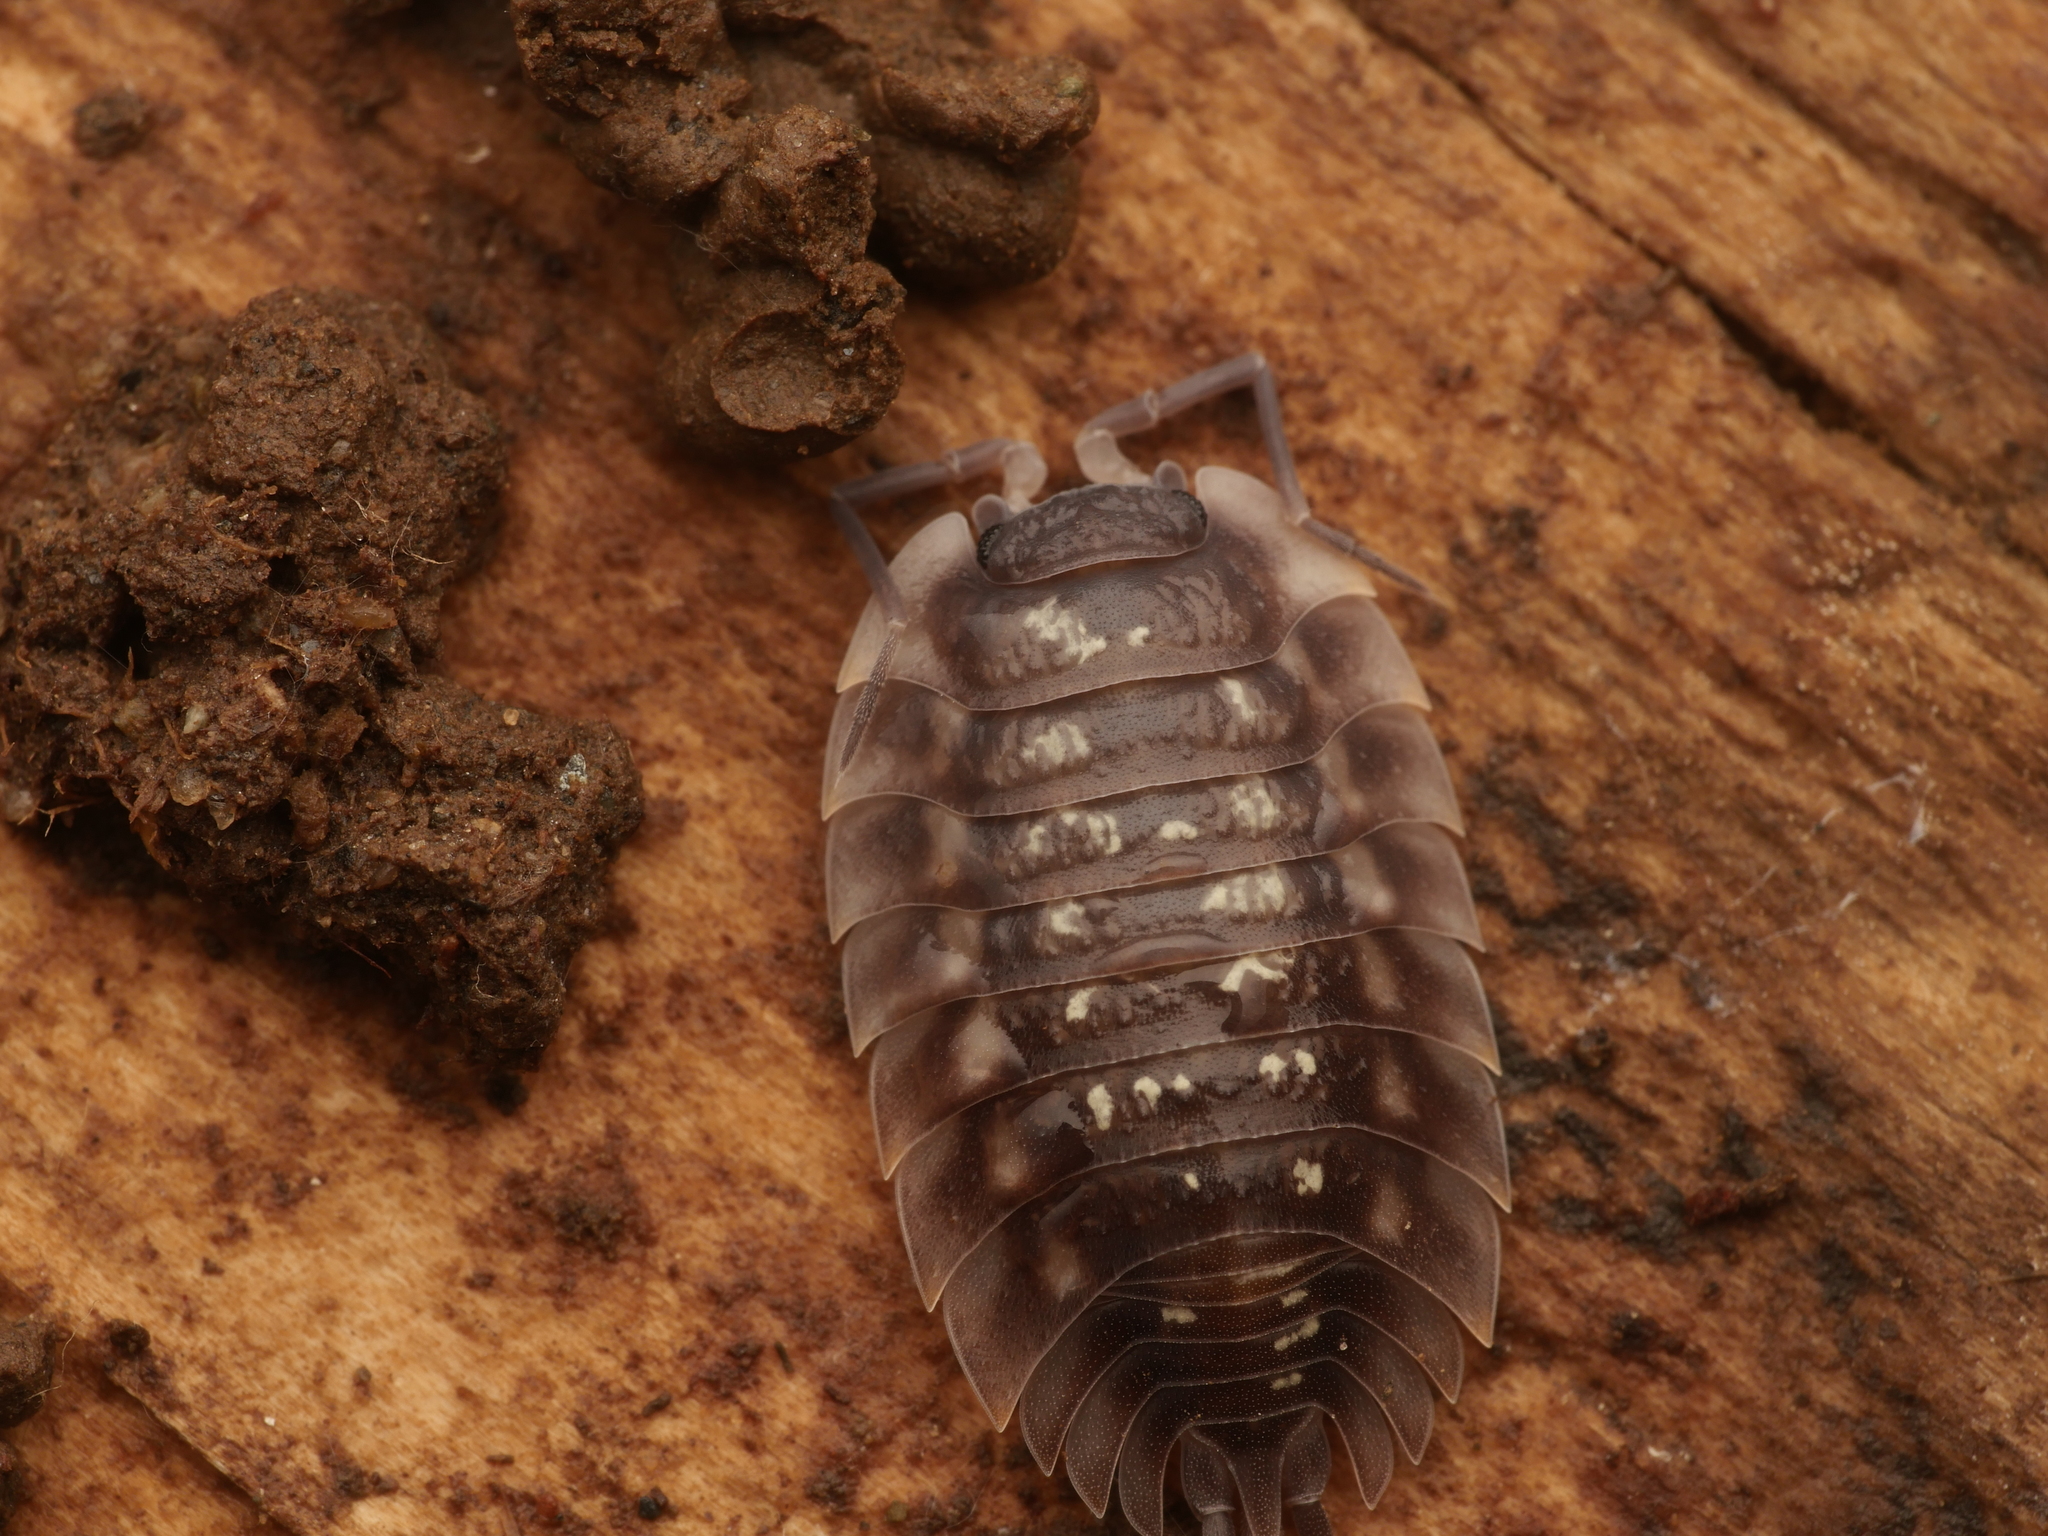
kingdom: Animalia
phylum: Arthropoda
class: Malacostraca
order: Isopoda
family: Oniscidae
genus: Oniscus
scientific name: Oniscus asellus
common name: Common shiny woodlouse
